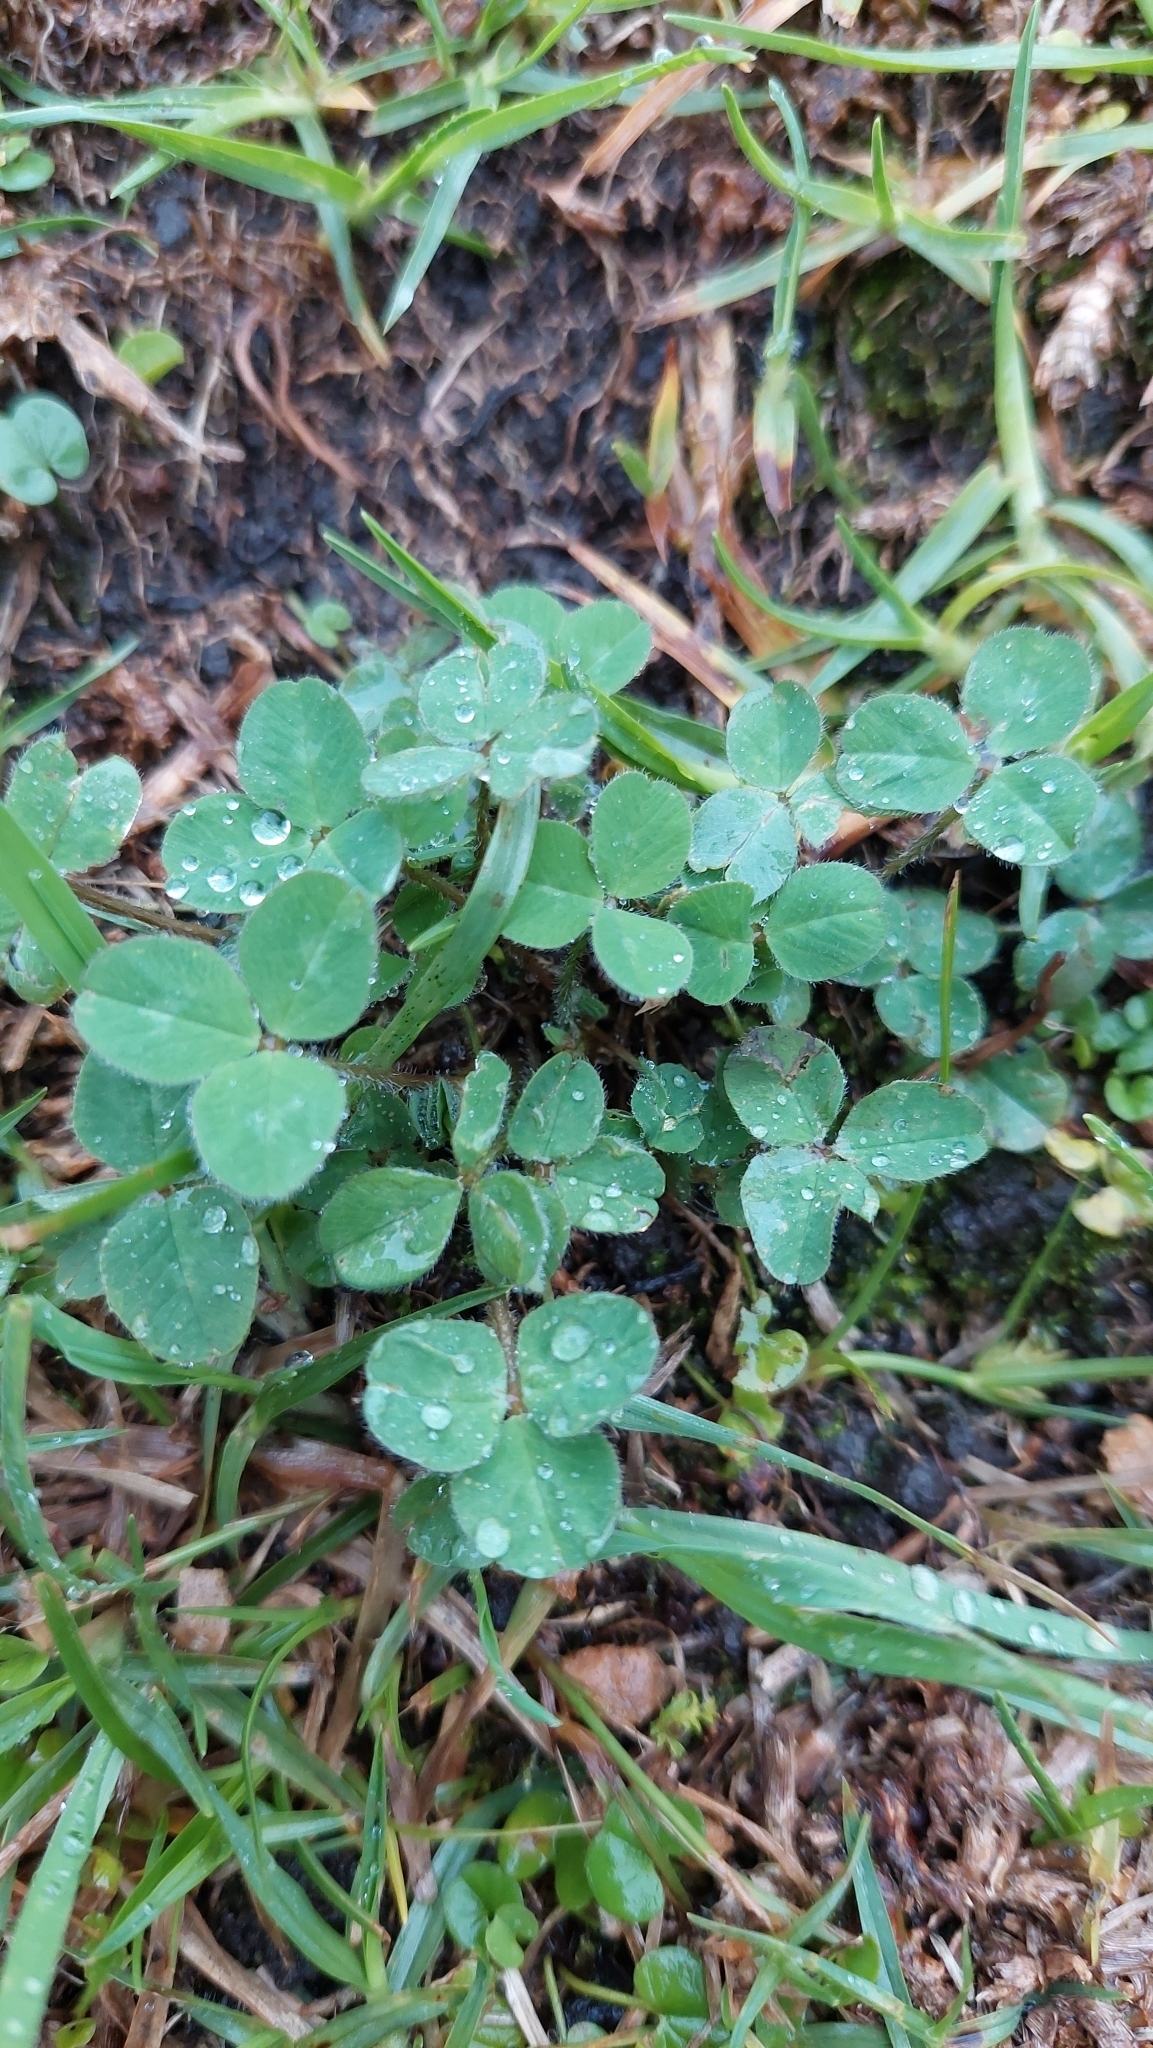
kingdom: Plantae
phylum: Tracheophyta
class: Magnoliopsida
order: Fabales
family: Fabaceae
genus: Trifolium
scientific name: Trifolium pratense
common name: Red clover
